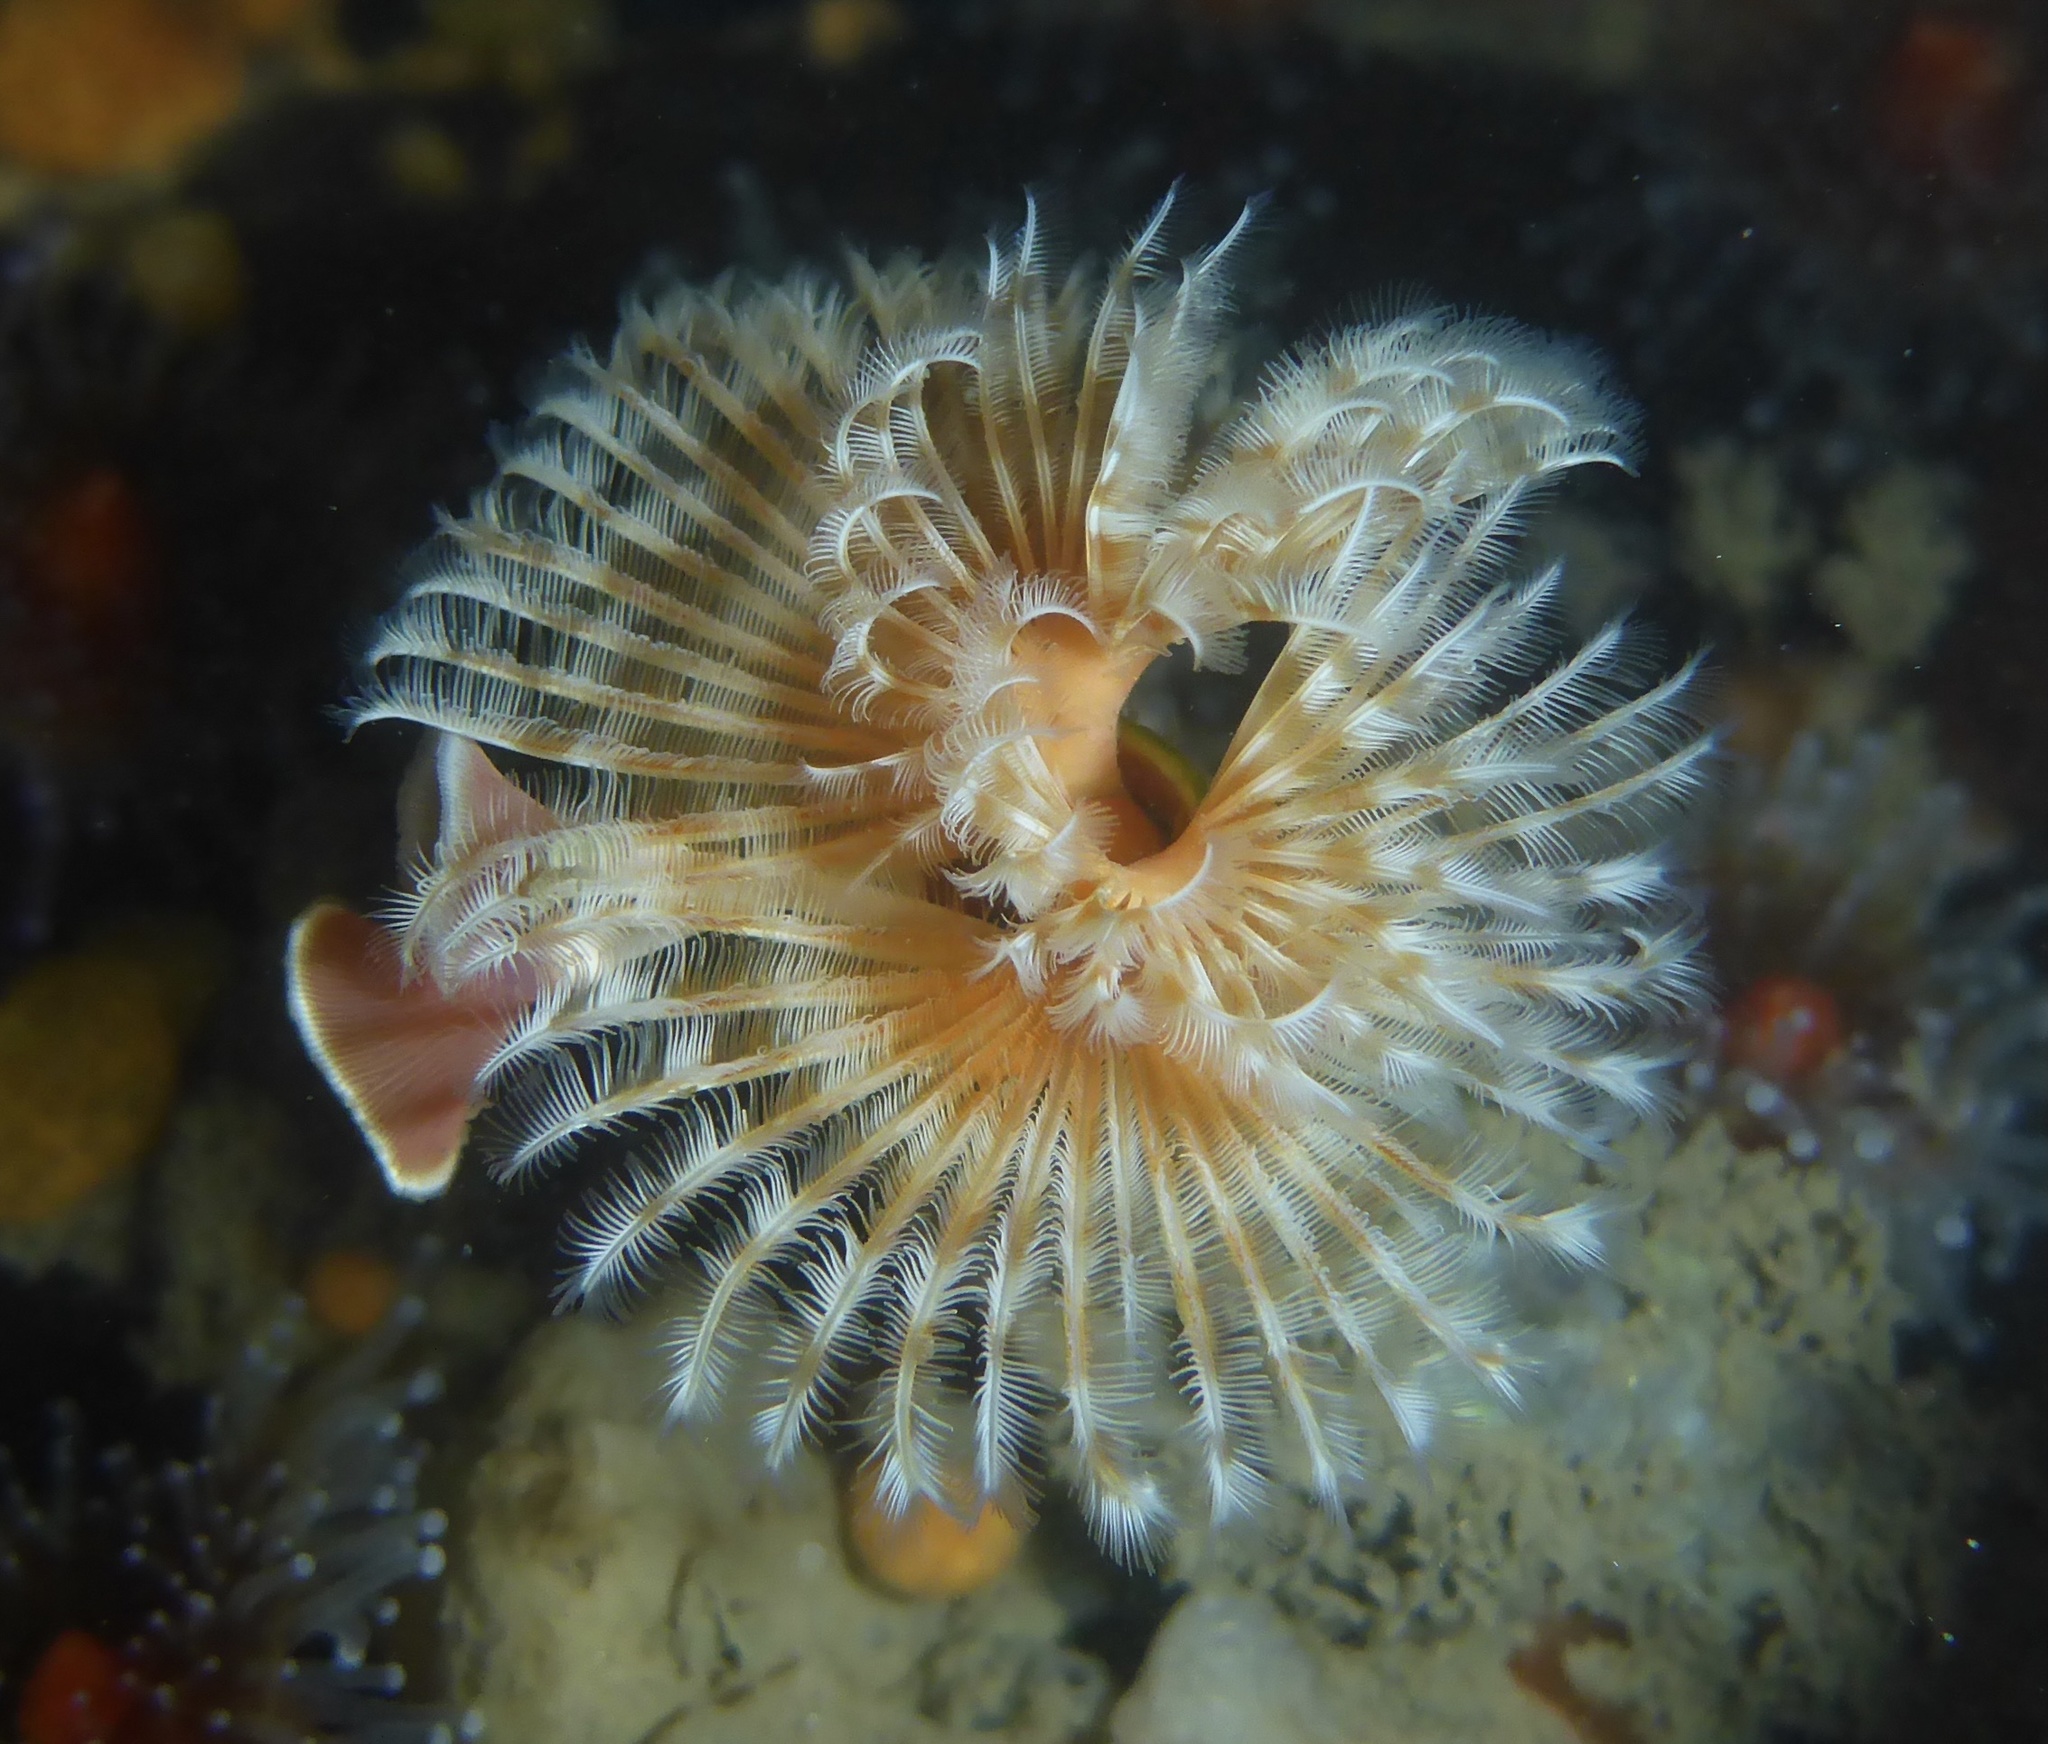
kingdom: Animalia
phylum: Annelida
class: Polychaeta
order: Sabellida
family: Serpulidae
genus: Serpula
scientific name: Serpula columbiana
